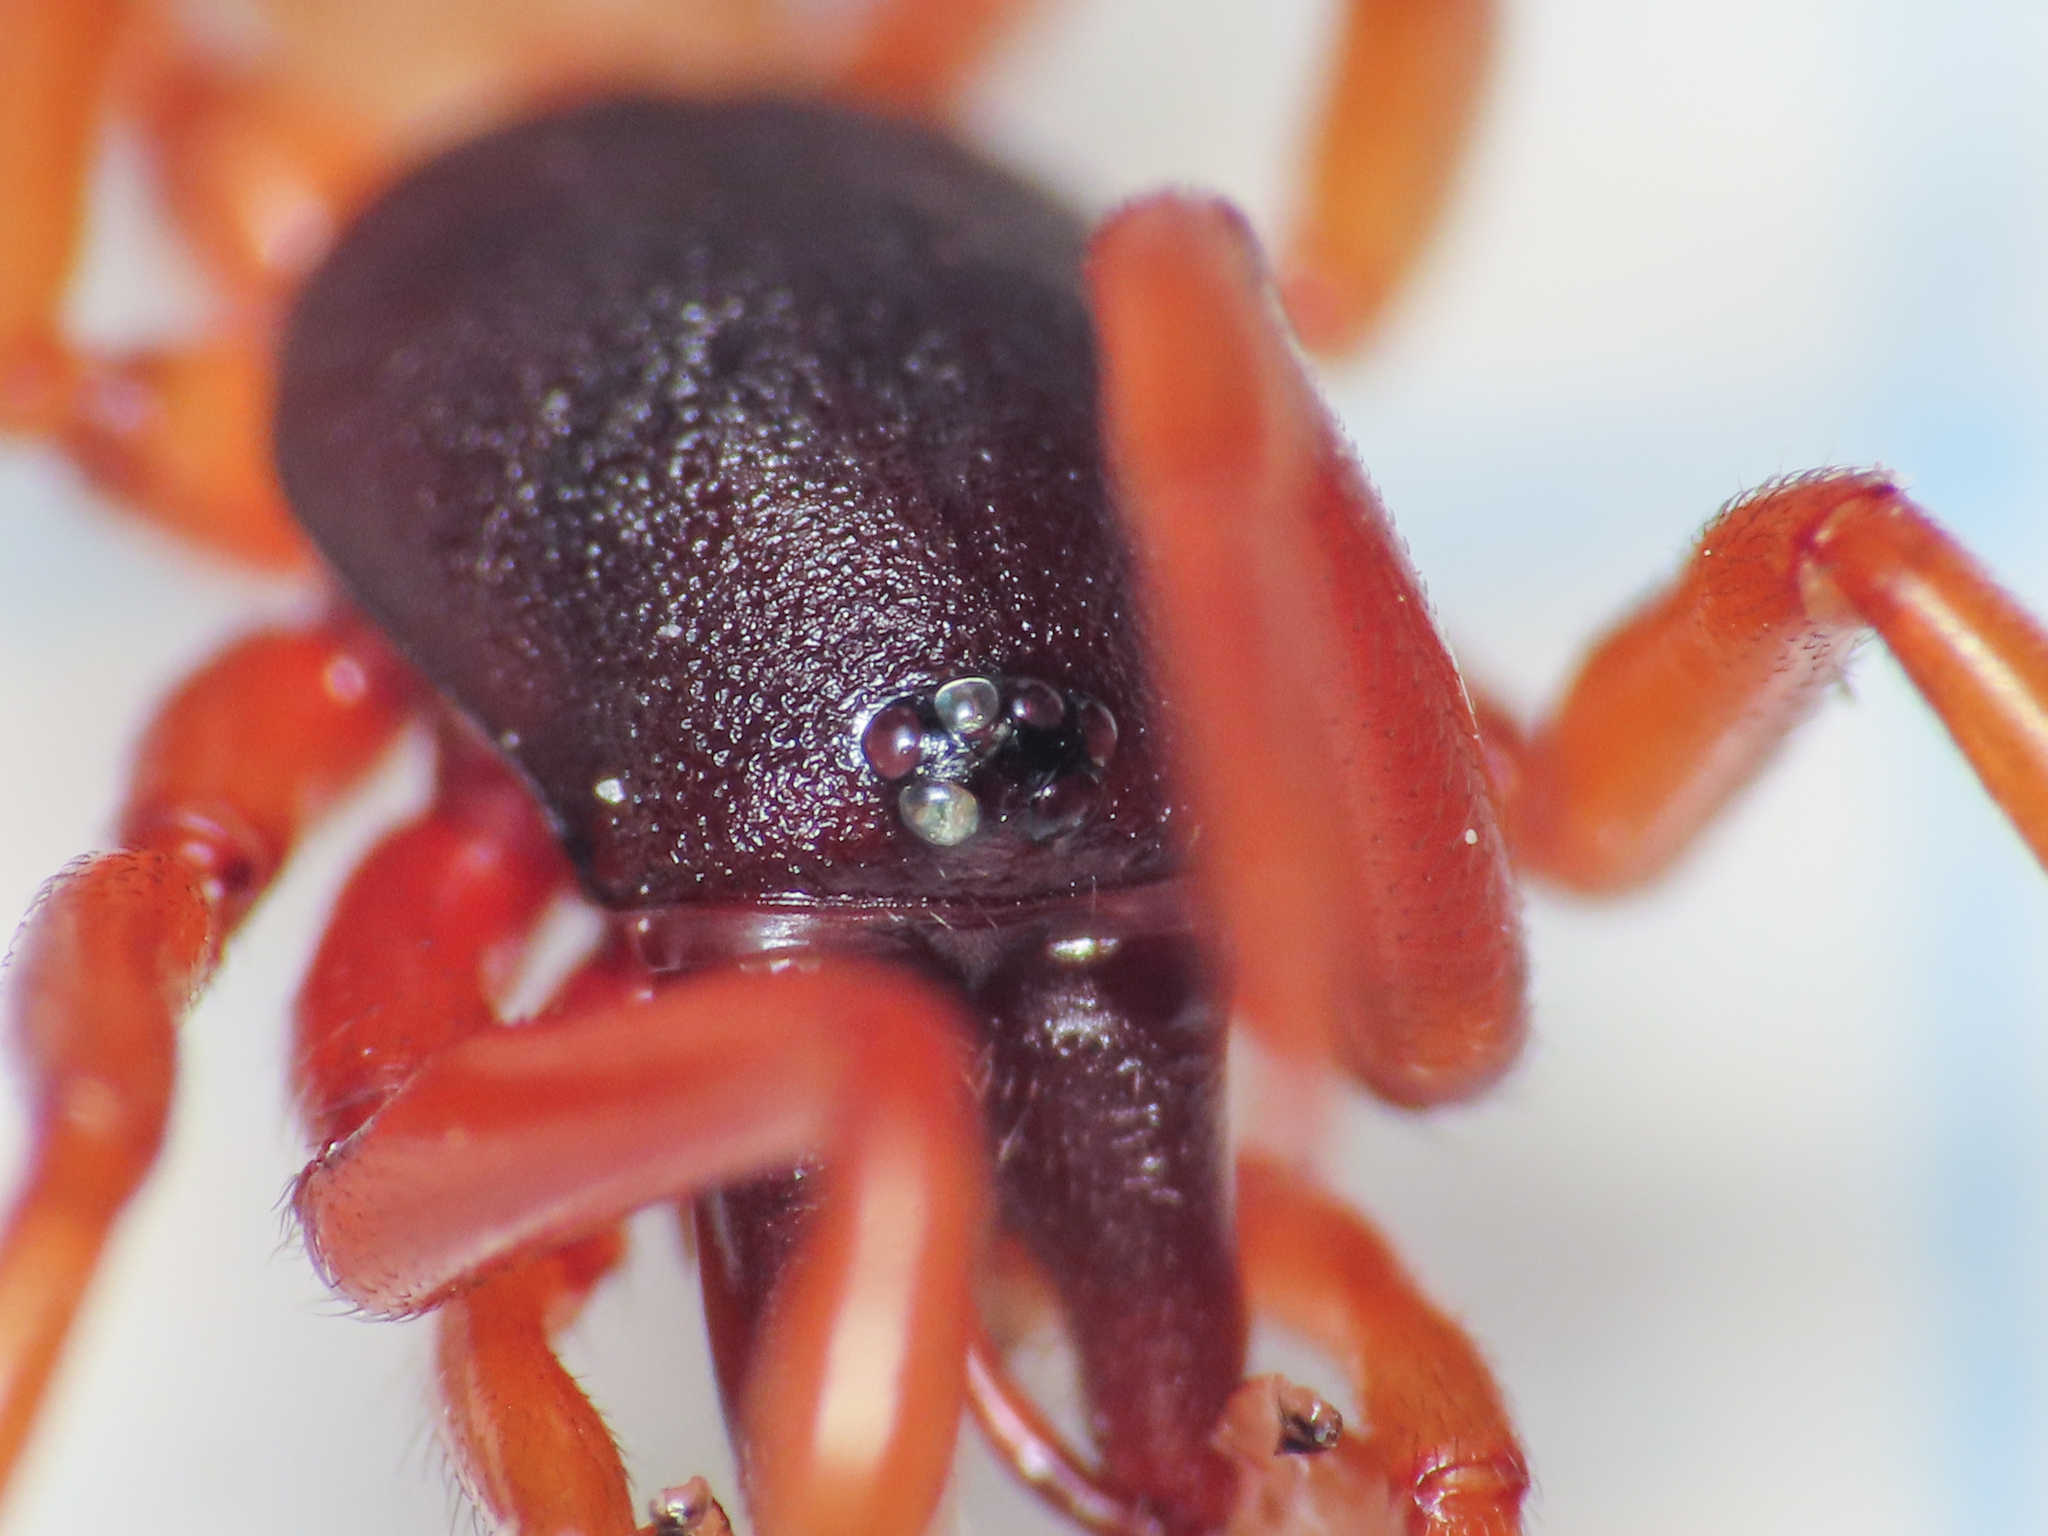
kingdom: Animalia
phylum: Arthropoda
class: Arachnida
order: Araneae
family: Dysderidae
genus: Dysdera
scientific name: Dysdera pominii
